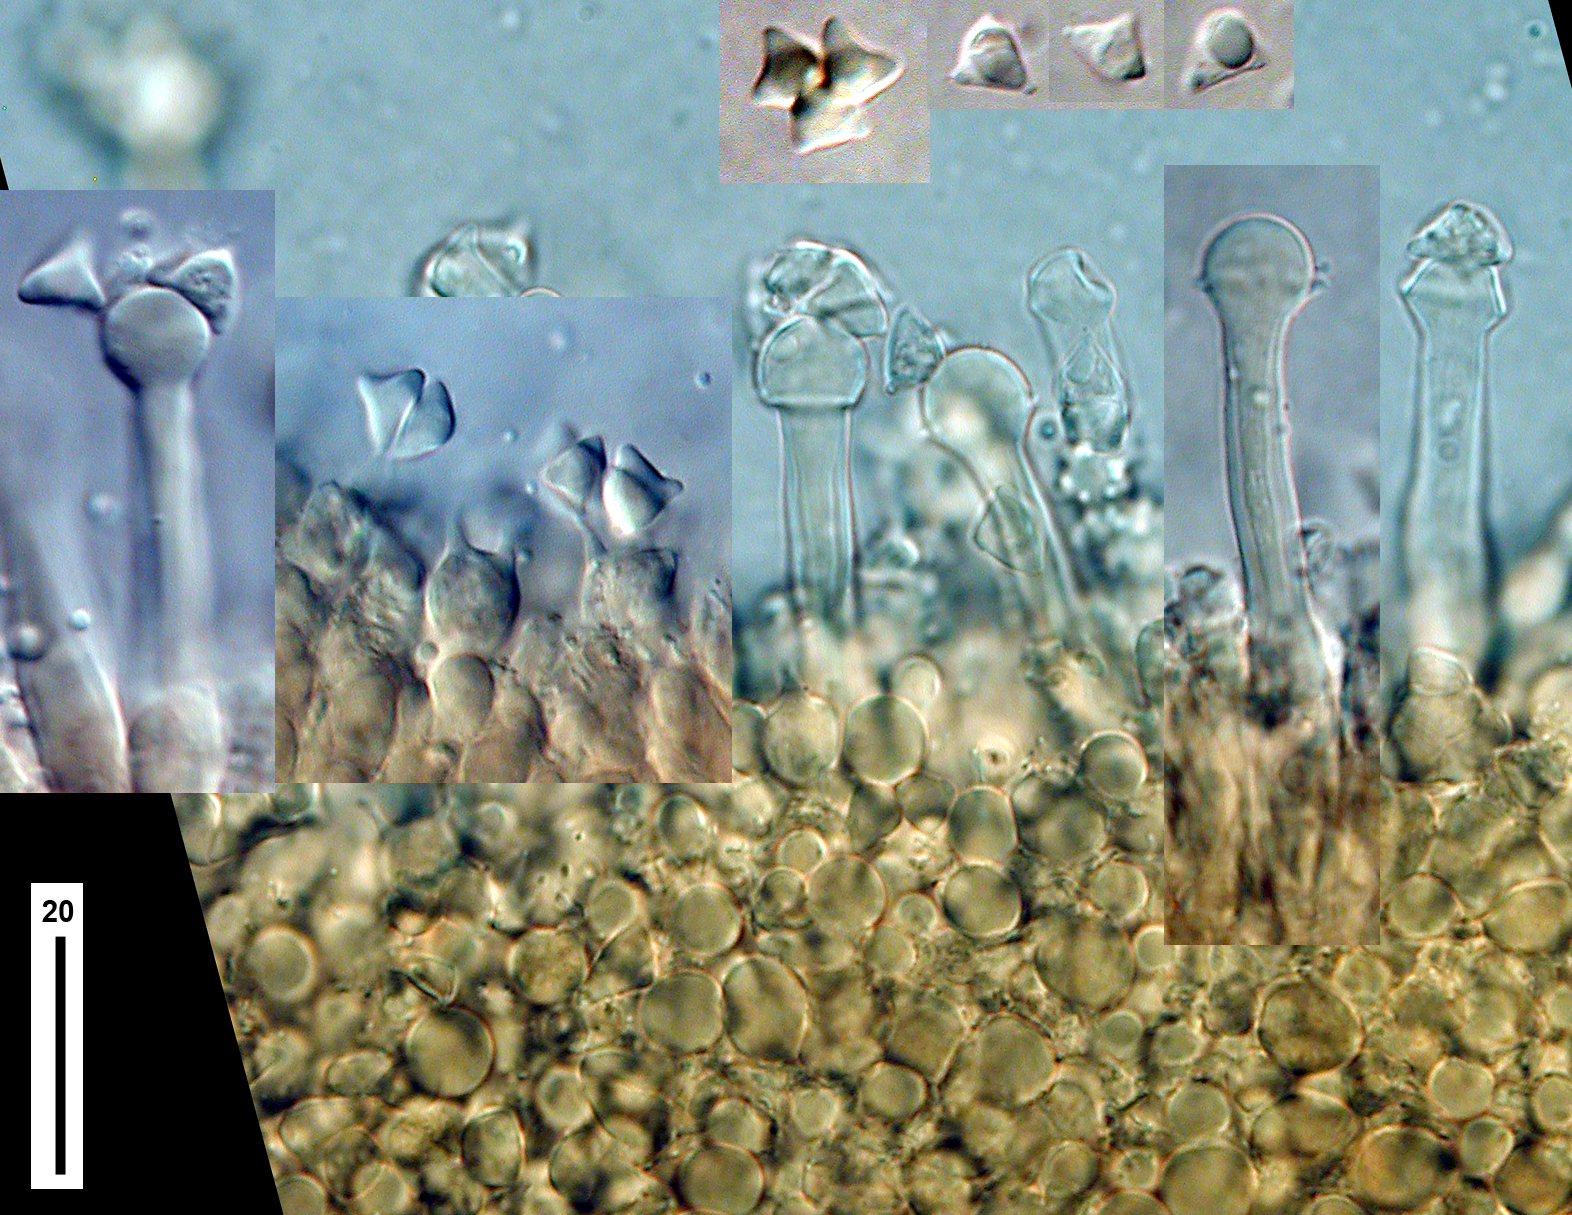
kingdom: Fungi
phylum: Basidiomycota
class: Agaricomycetes
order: Agaricales
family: Marasmiaceae
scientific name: Marasmiaceae
